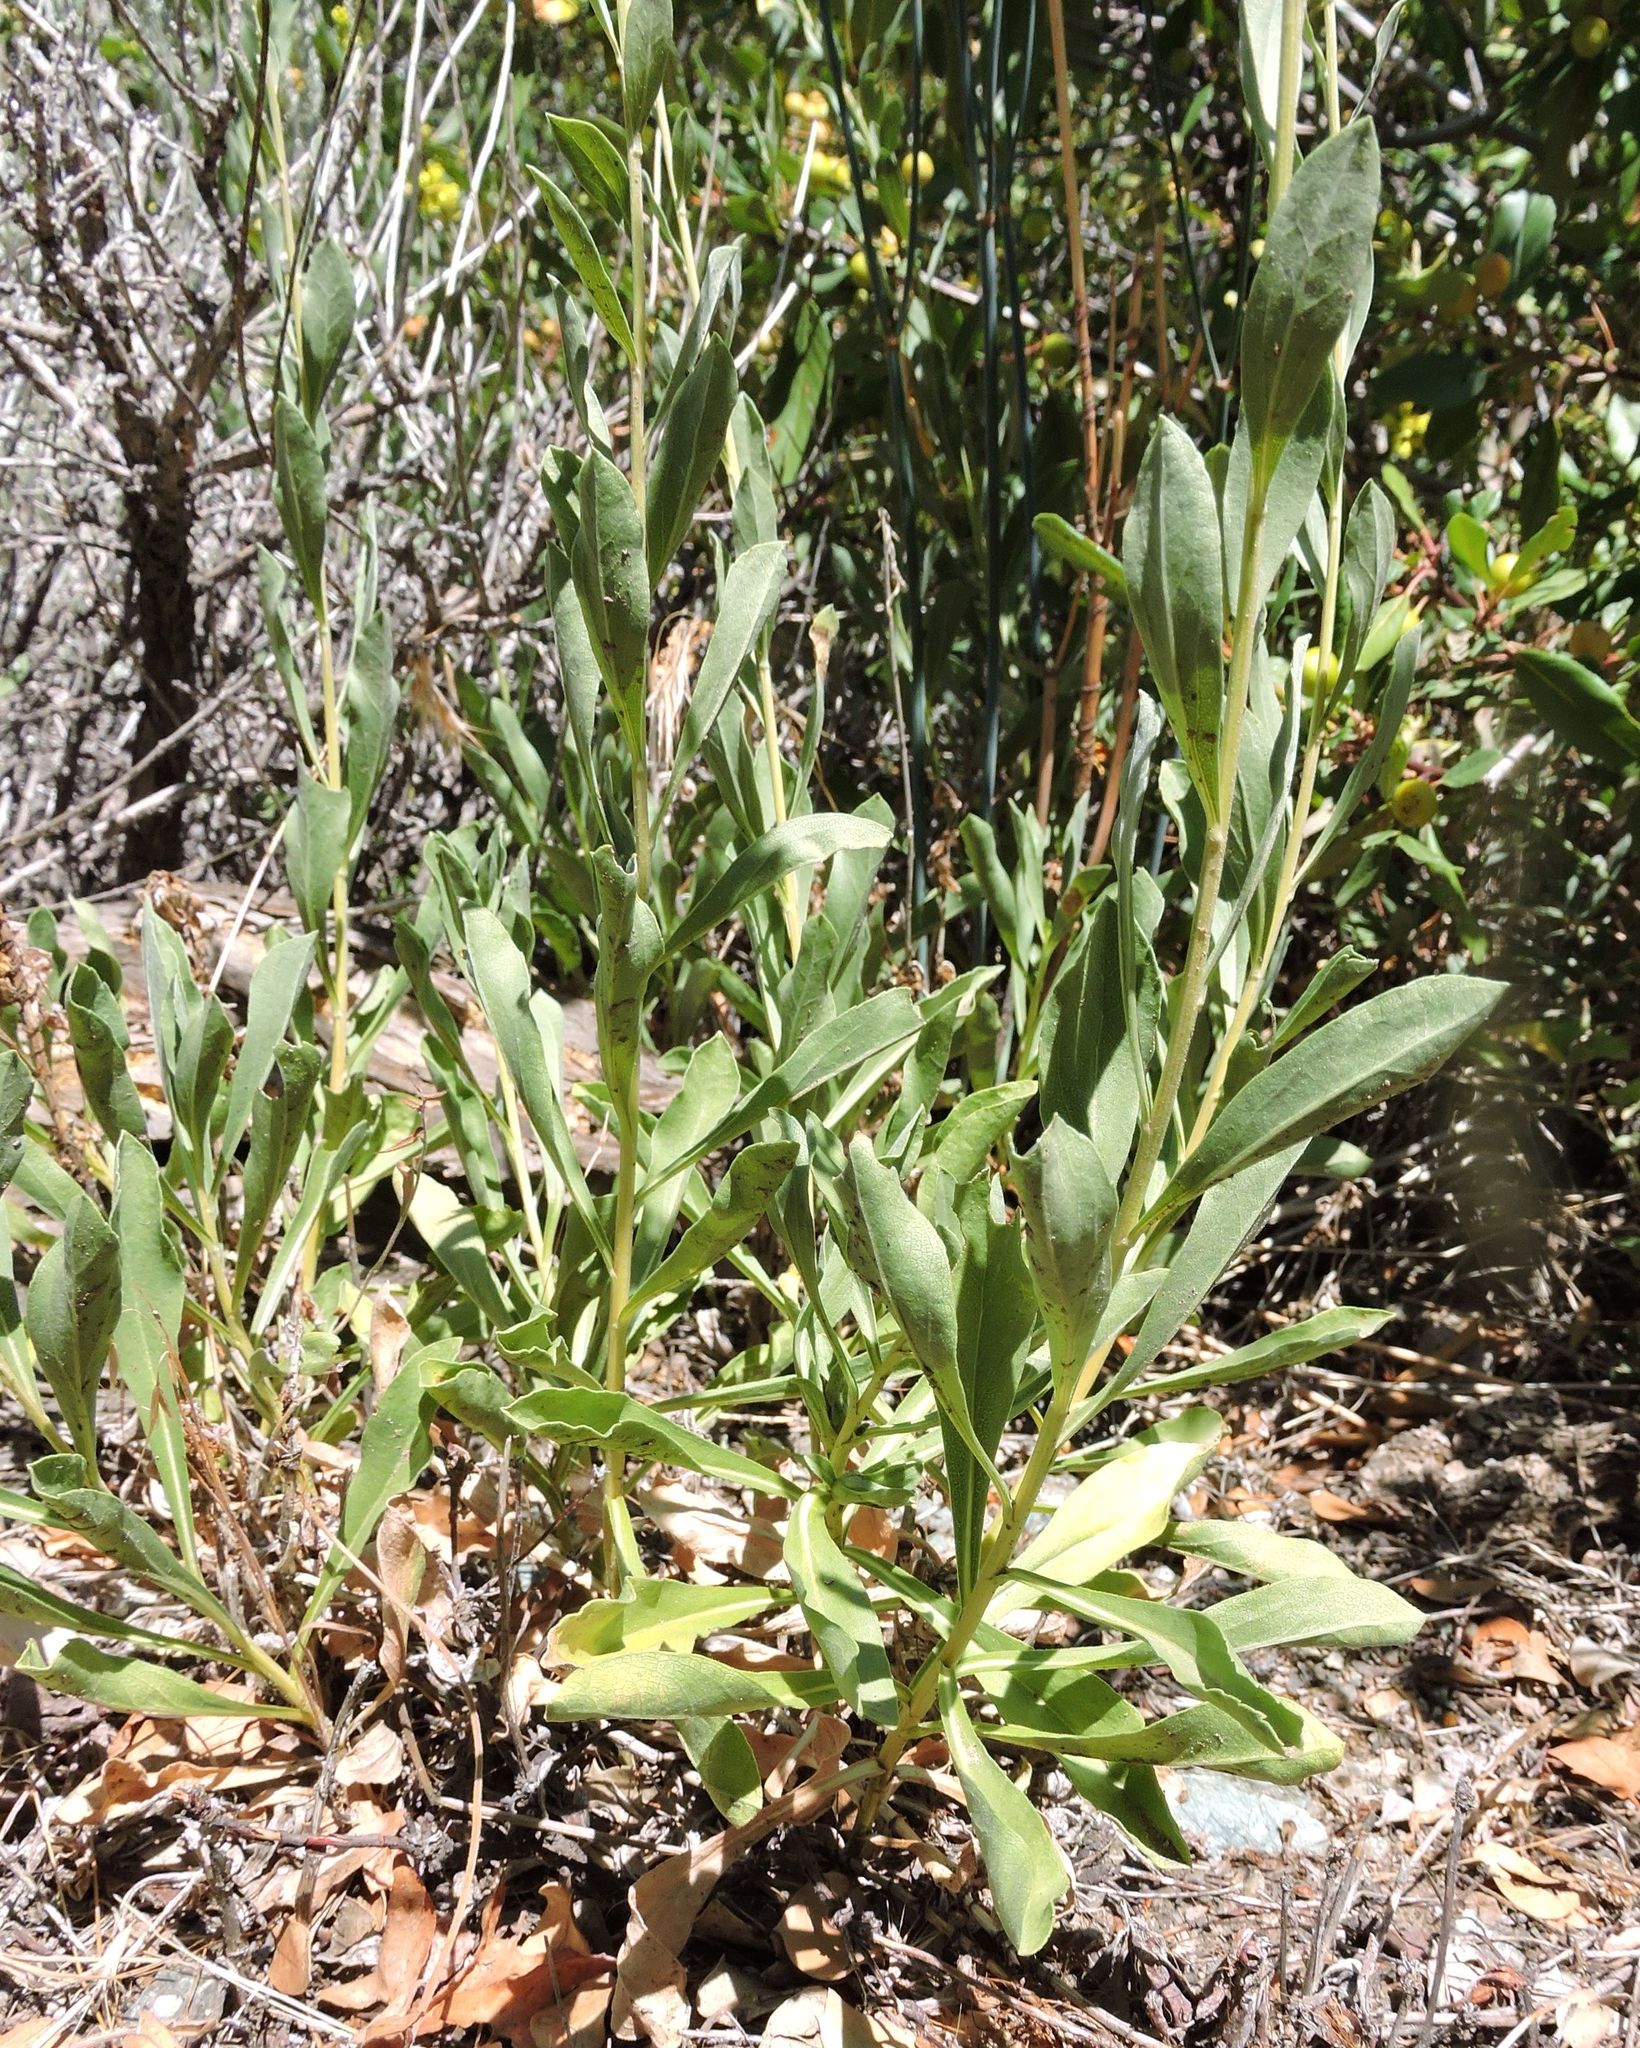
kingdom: Plantae
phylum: Tracheophyta
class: Magnoliopsida
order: Asterales
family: Asteraceae
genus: Solidago
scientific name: Solidago velutina
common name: Three-nerve goldenrod
